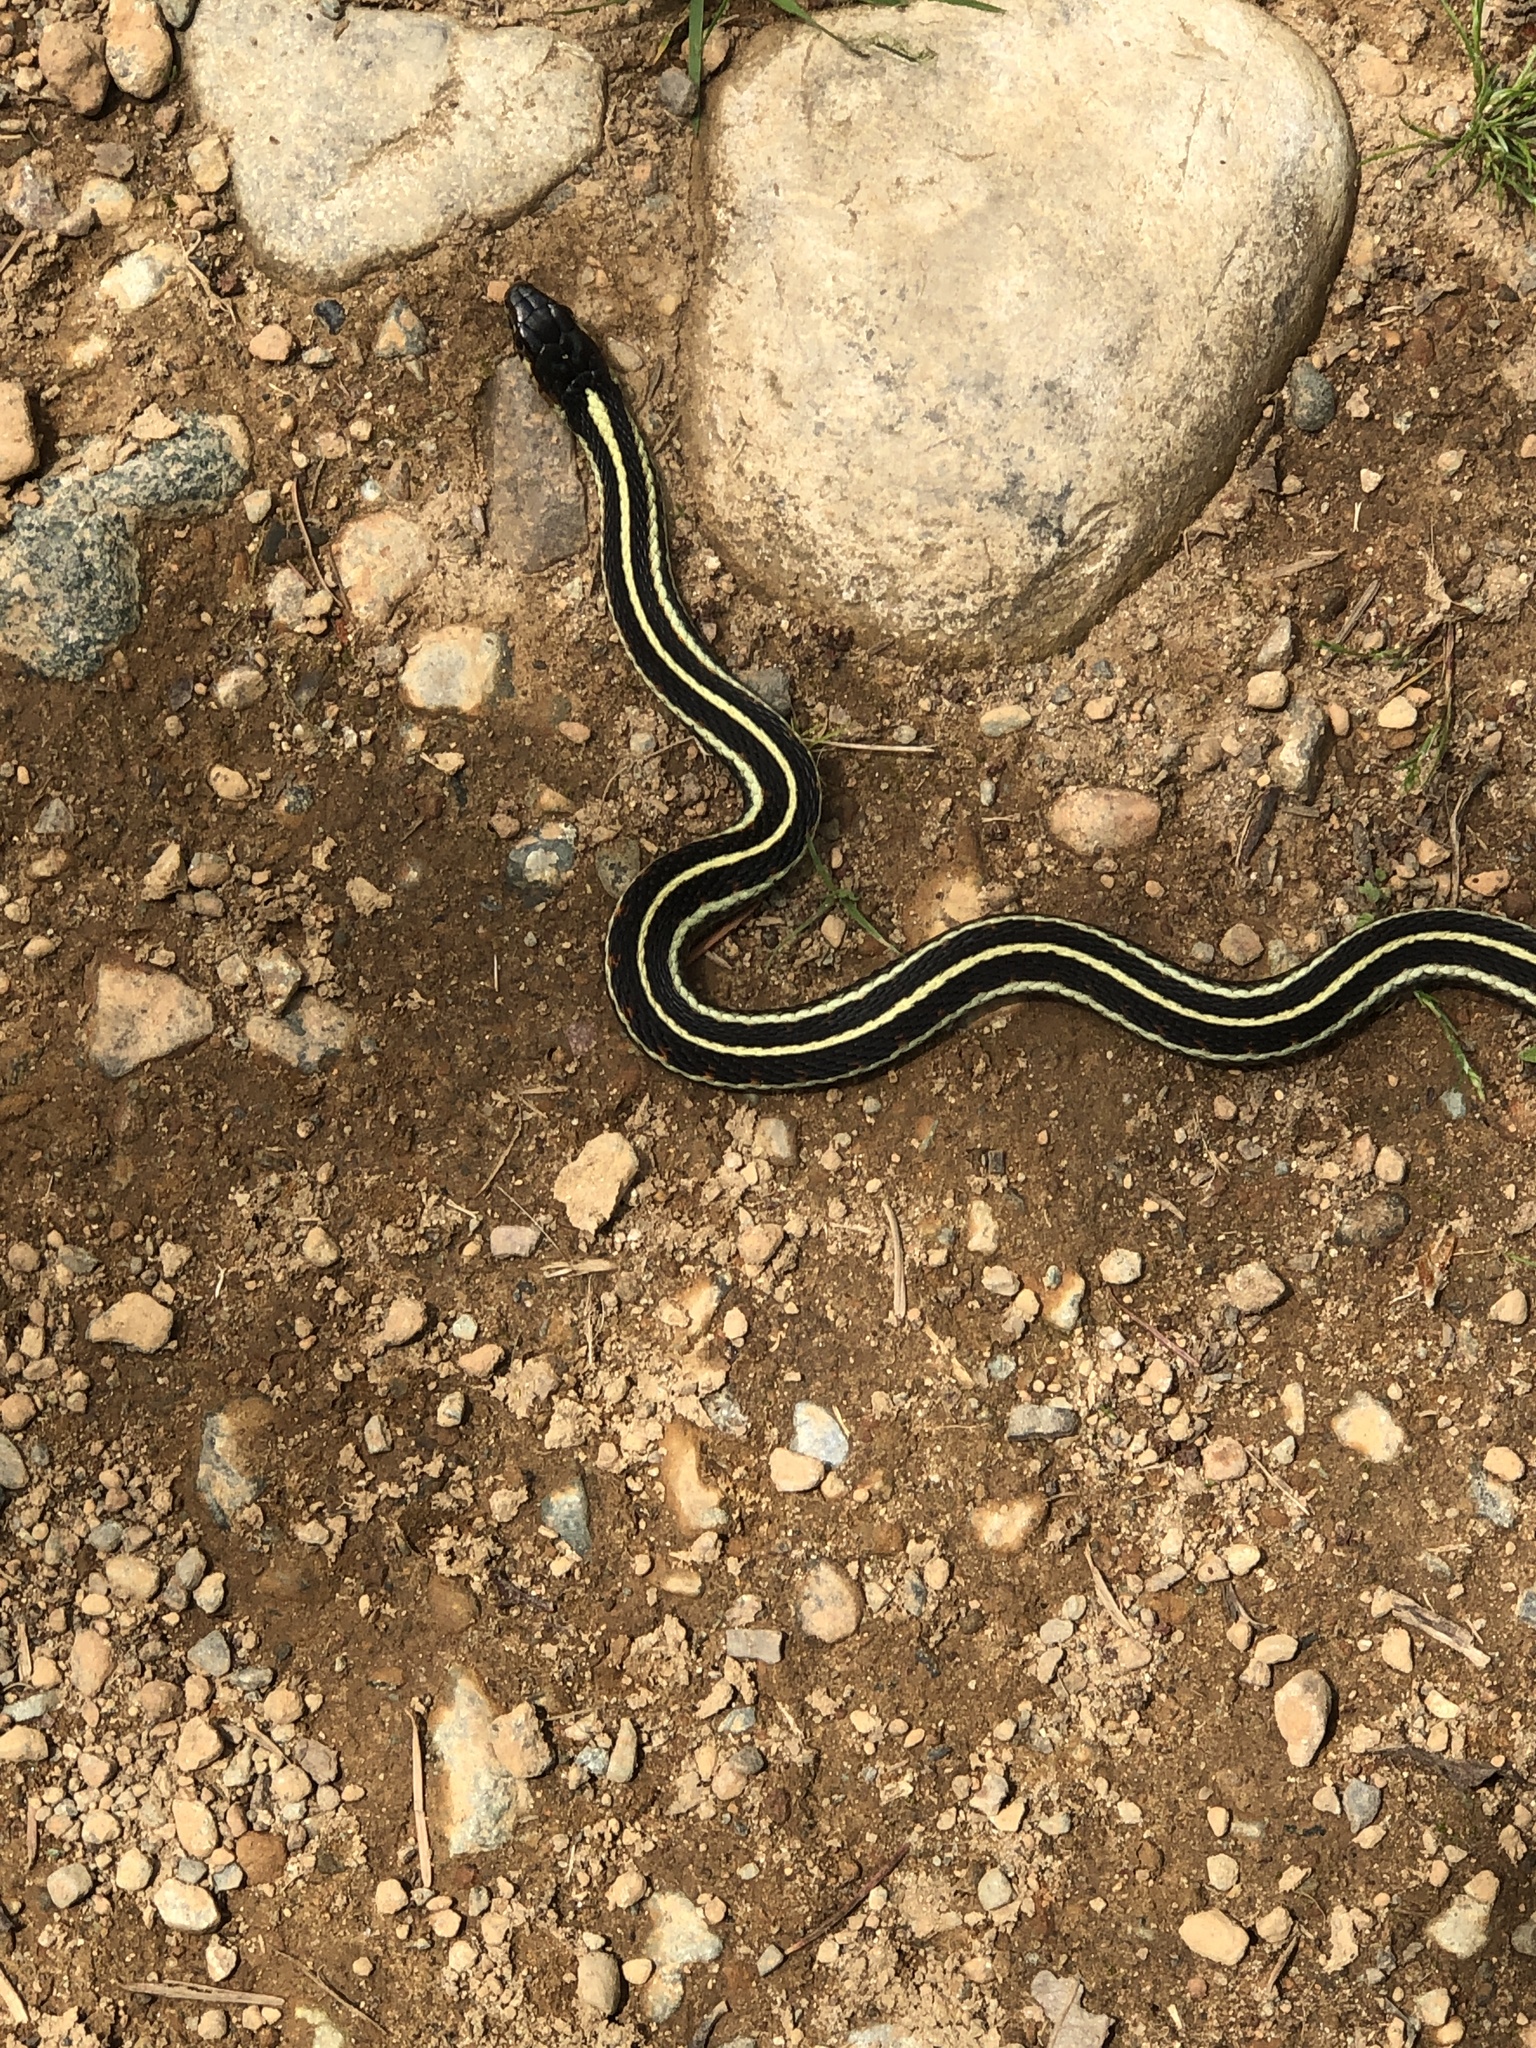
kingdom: Animalia
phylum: Chordata
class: Squamata
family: Colubridae
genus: Thamnophis
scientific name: Thamnophis sirtalis
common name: Common garter snake
